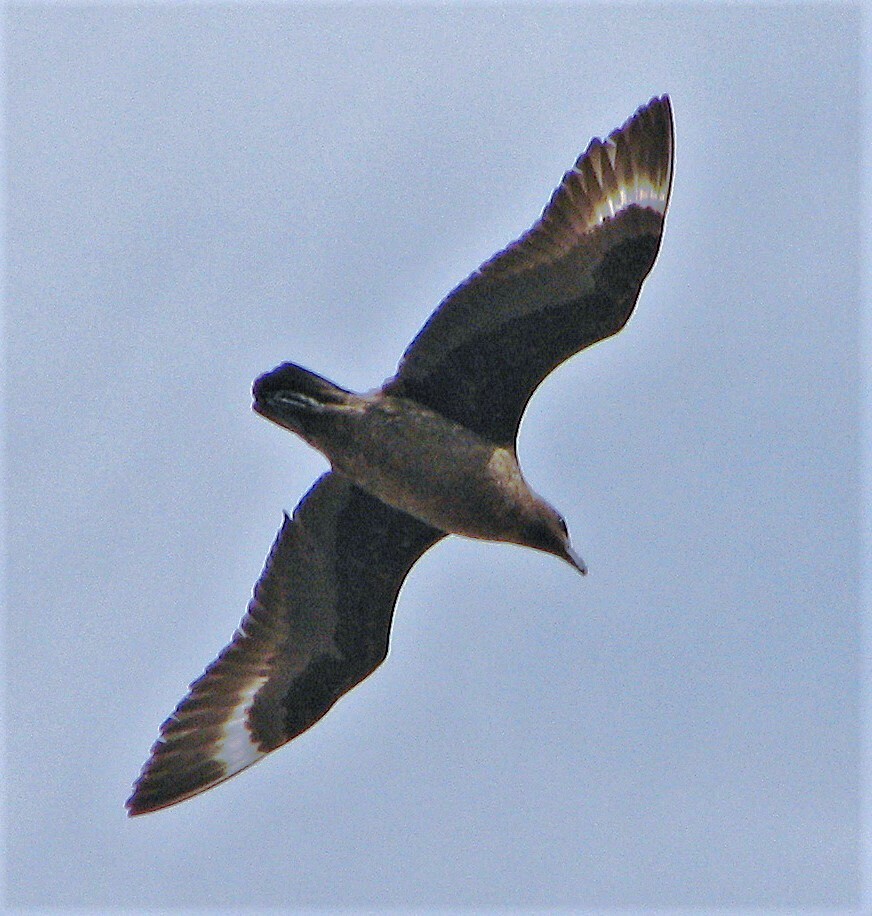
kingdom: Animalia
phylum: Chordata
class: Aves
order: Charadriiformes
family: Stercorariidae
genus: Stercorarius
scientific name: Stercorarius antarcticus
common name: Brown skua
